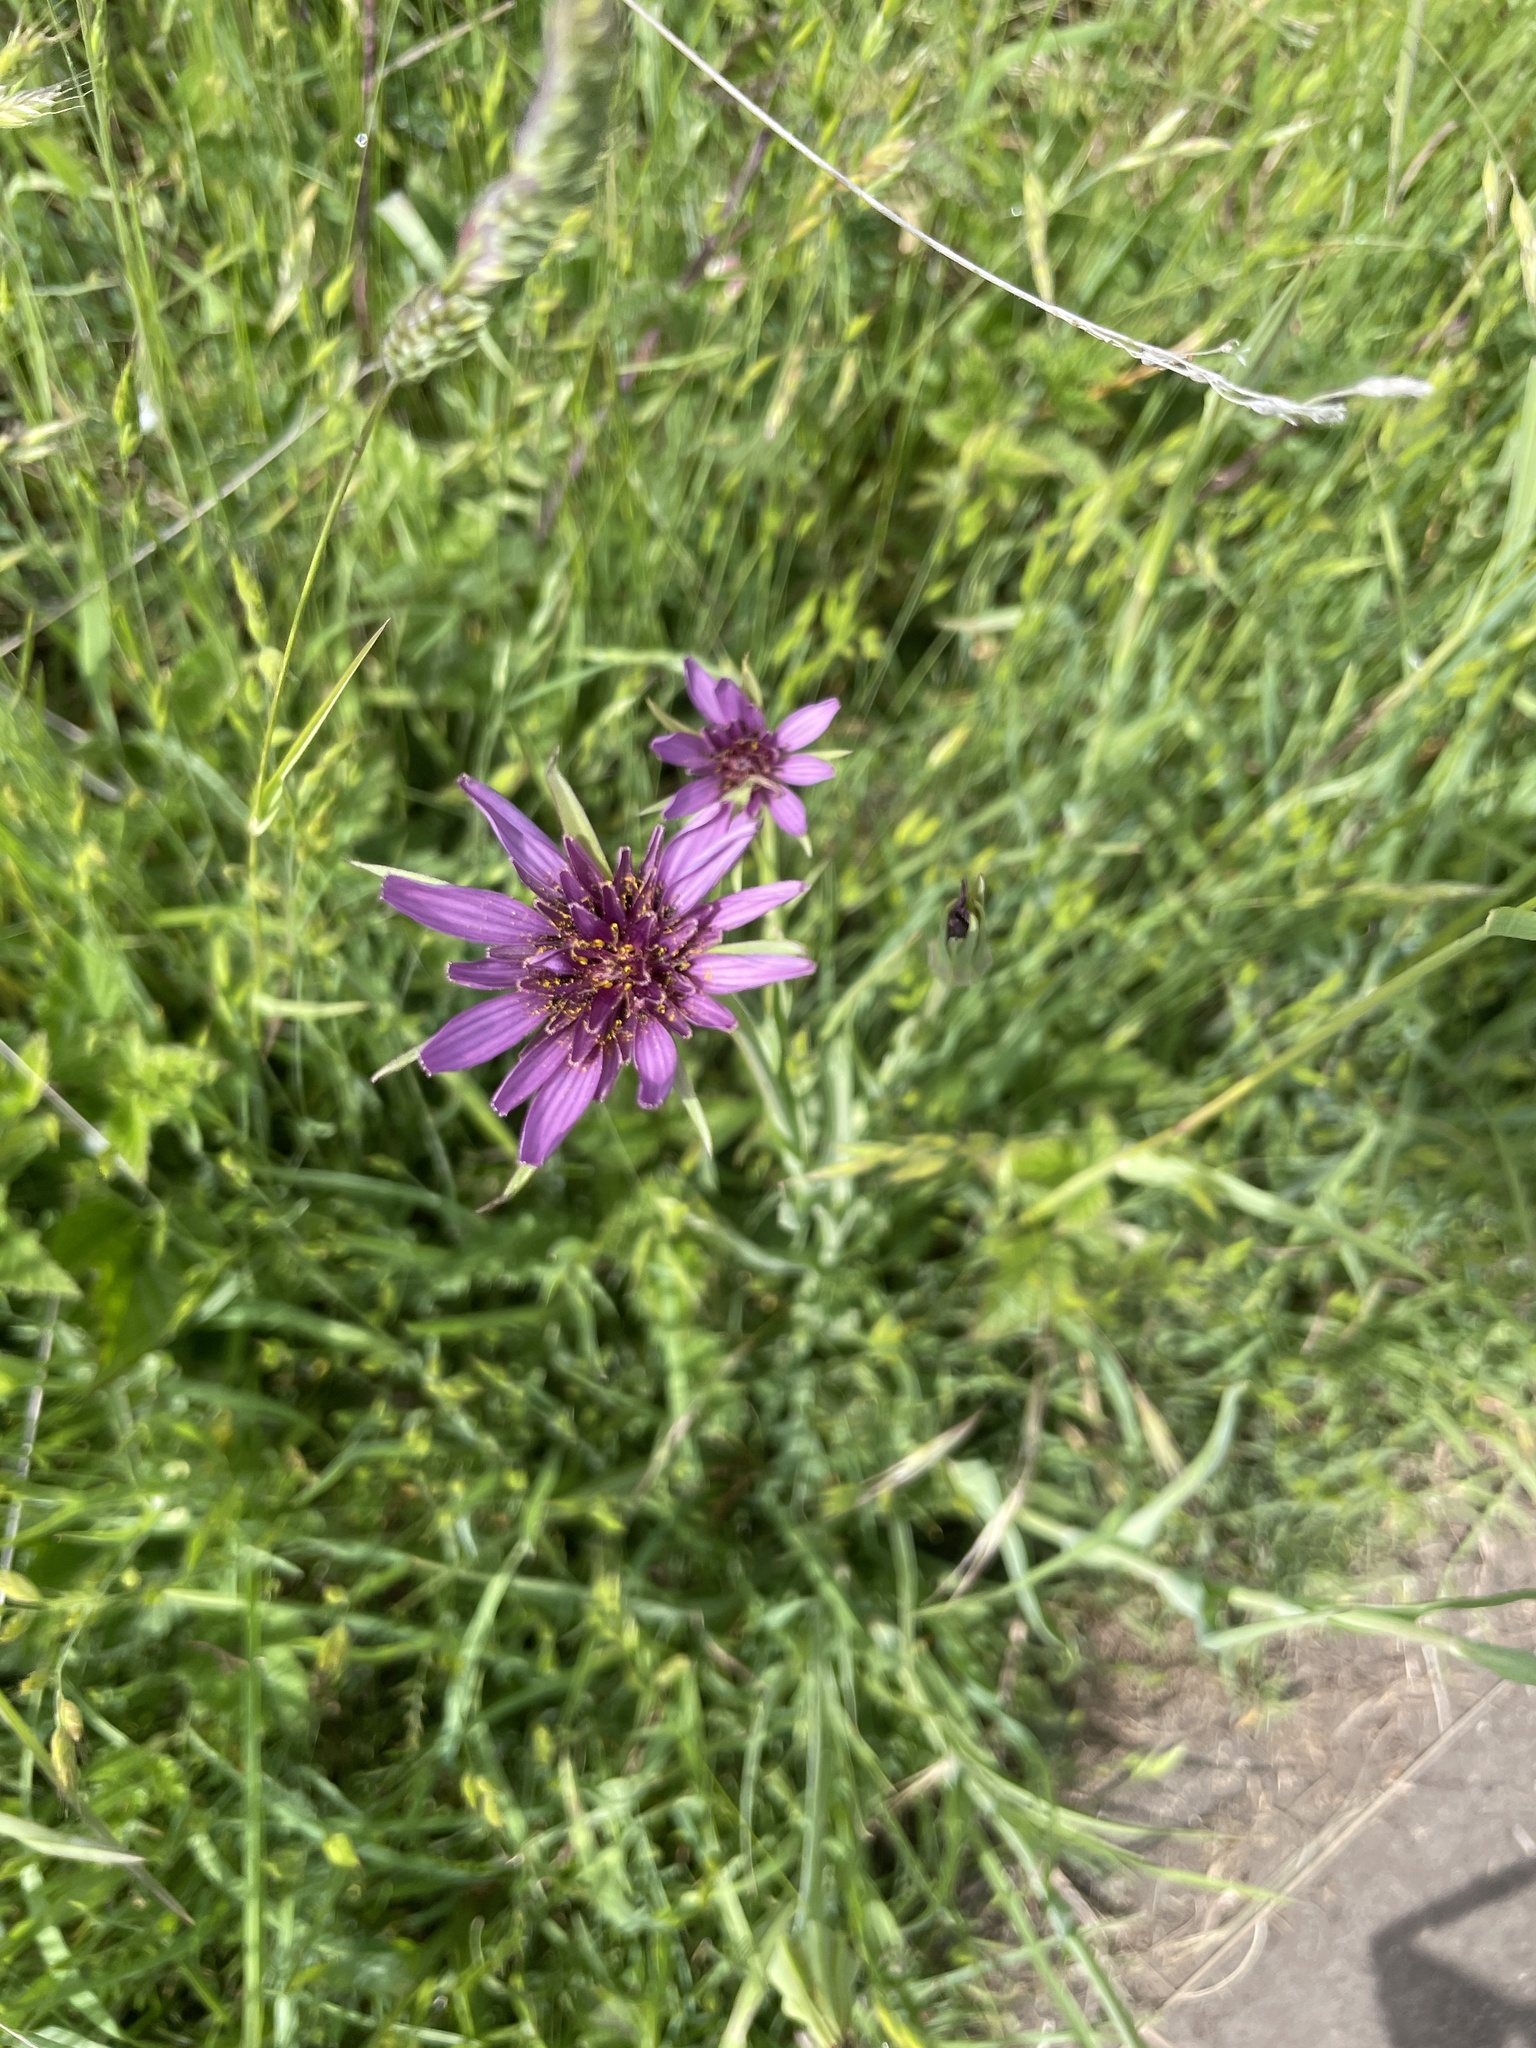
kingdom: Plantae
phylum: Tracheophyta
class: Magnoliopsida
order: Asterales
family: Asteraceae
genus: Tragopogon
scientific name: Tragopogon porrifolius
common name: Salsify
